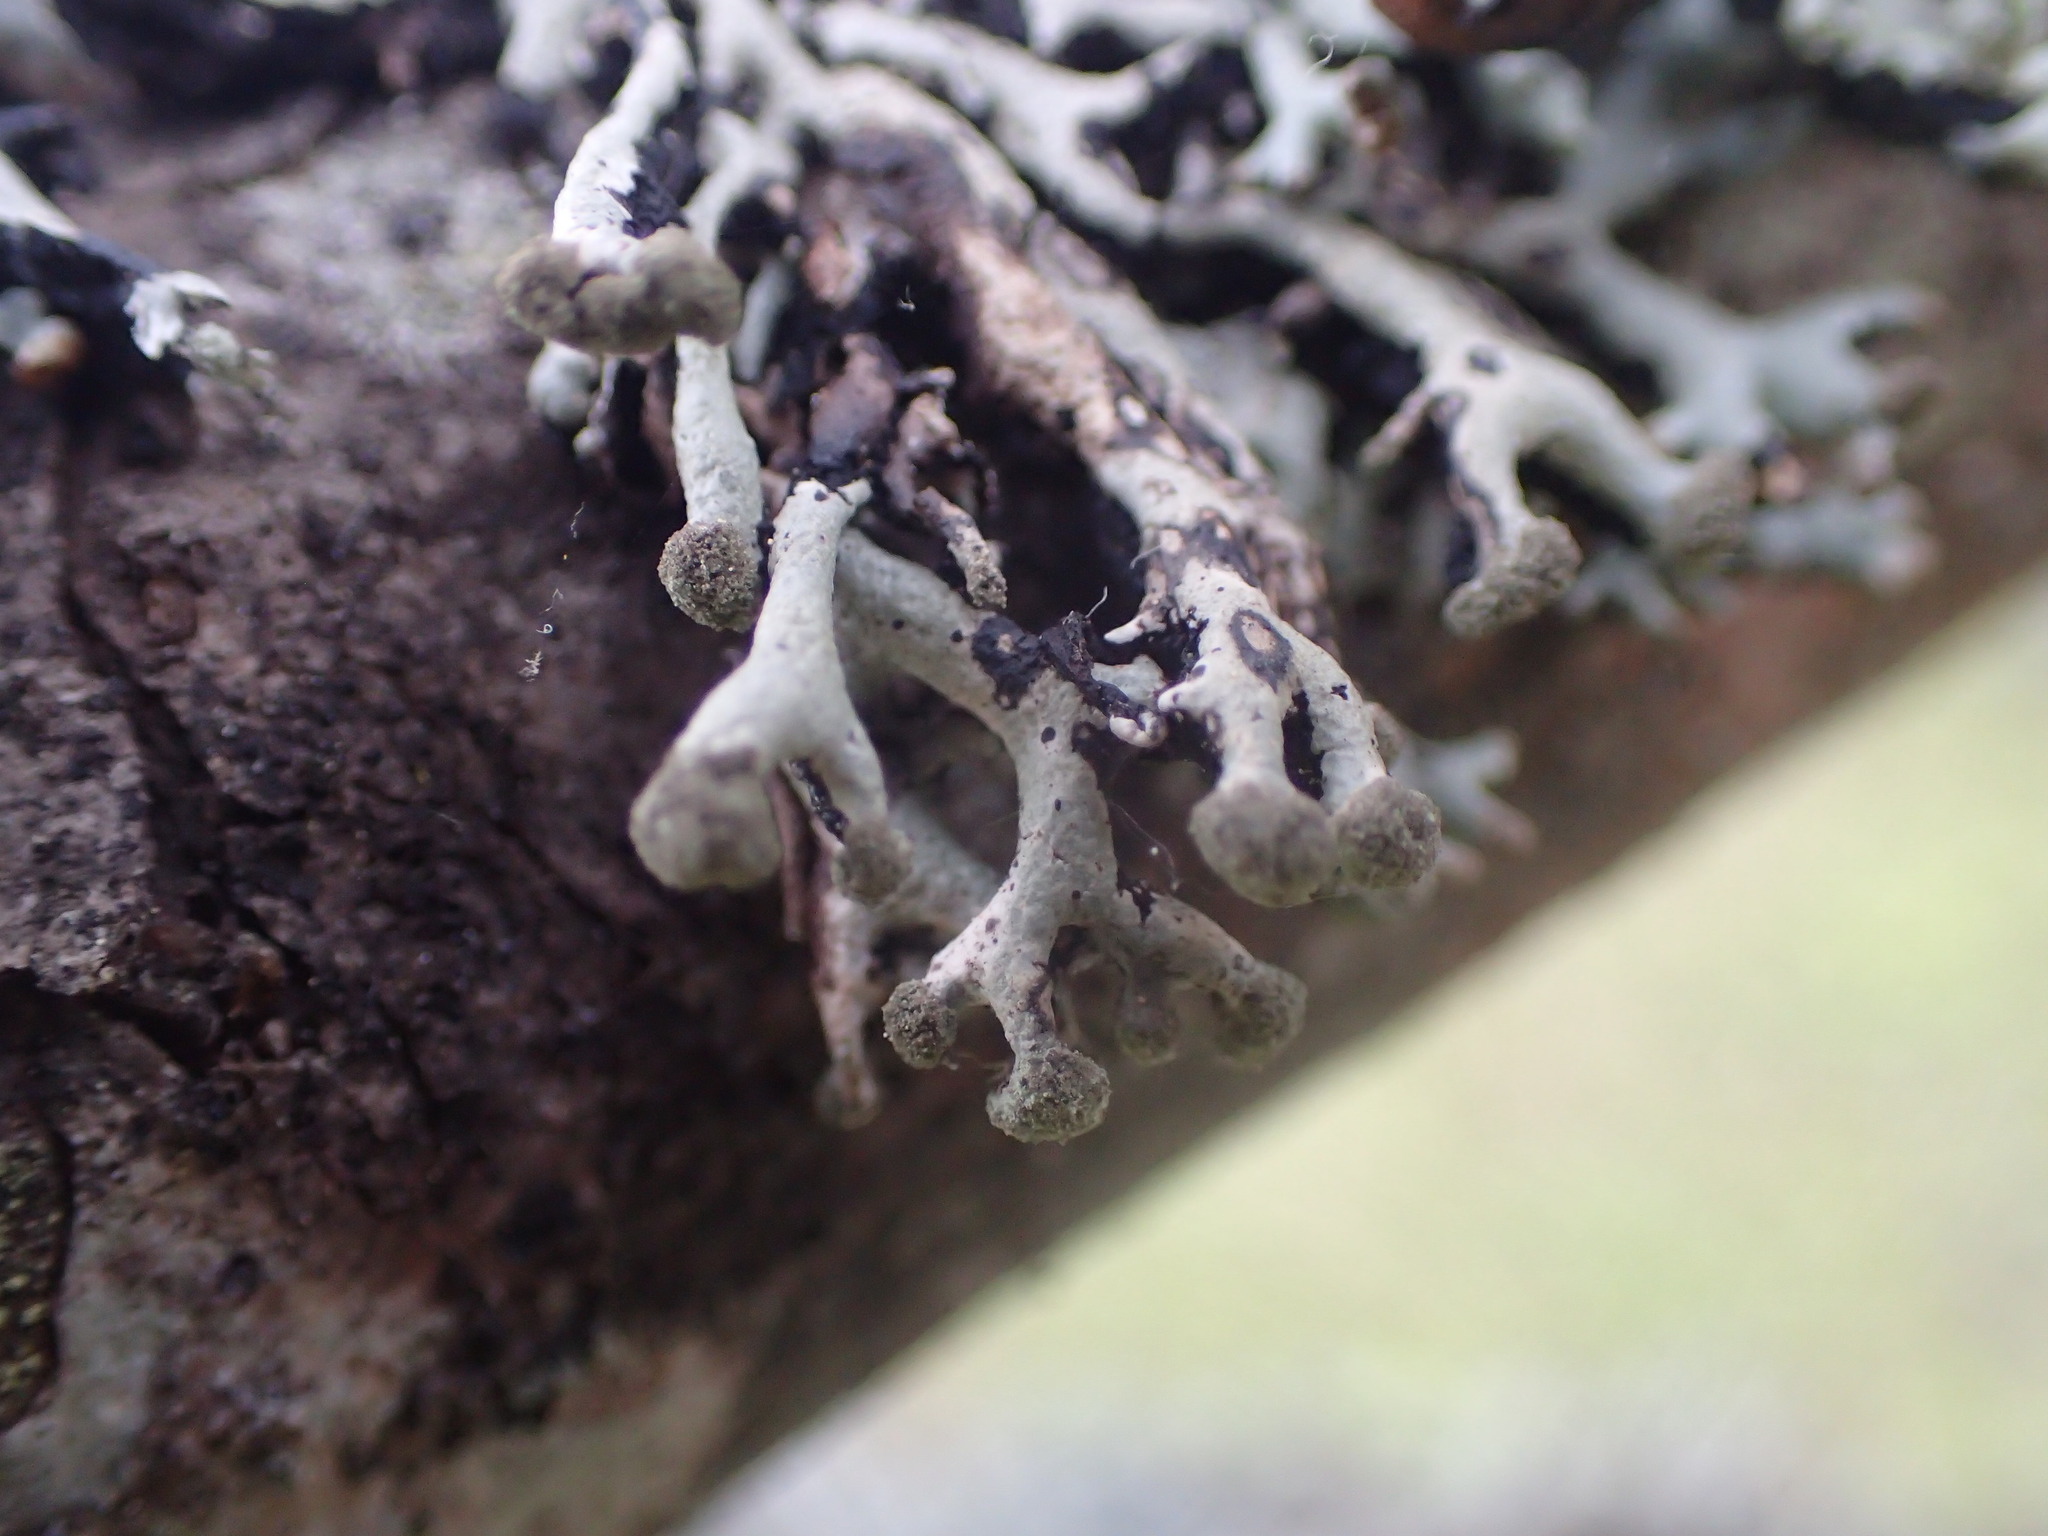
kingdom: Fungi
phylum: Ascomycota
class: Lecanoromycetes
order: Lecanorales
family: Parmeliaceae
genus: Hypogymnia
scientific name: Hypogymnia tubulosa
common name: Powder-headed tube lichen
